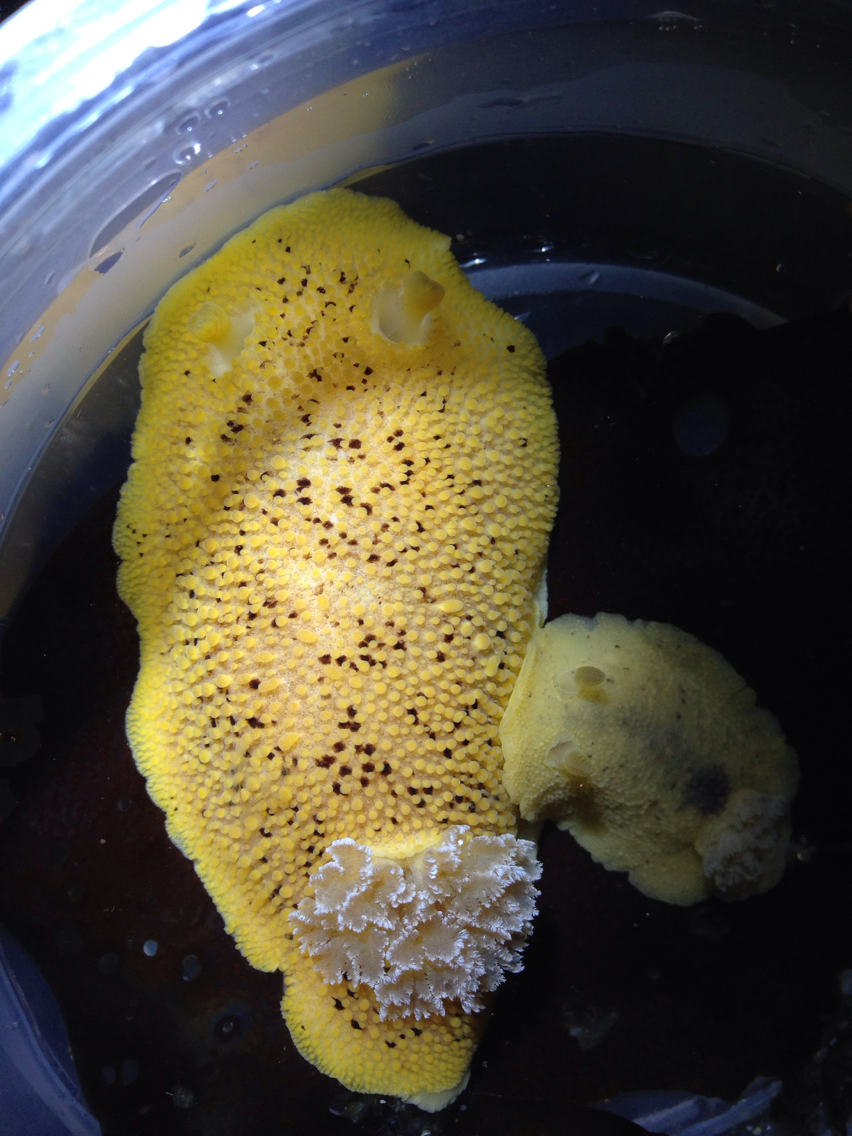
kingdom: Animalia
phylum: Mollusca
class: Gastropoda
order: Nudibranchia
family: Discodorididae
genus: Peltodoris
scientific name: Peltodoris nobilis
